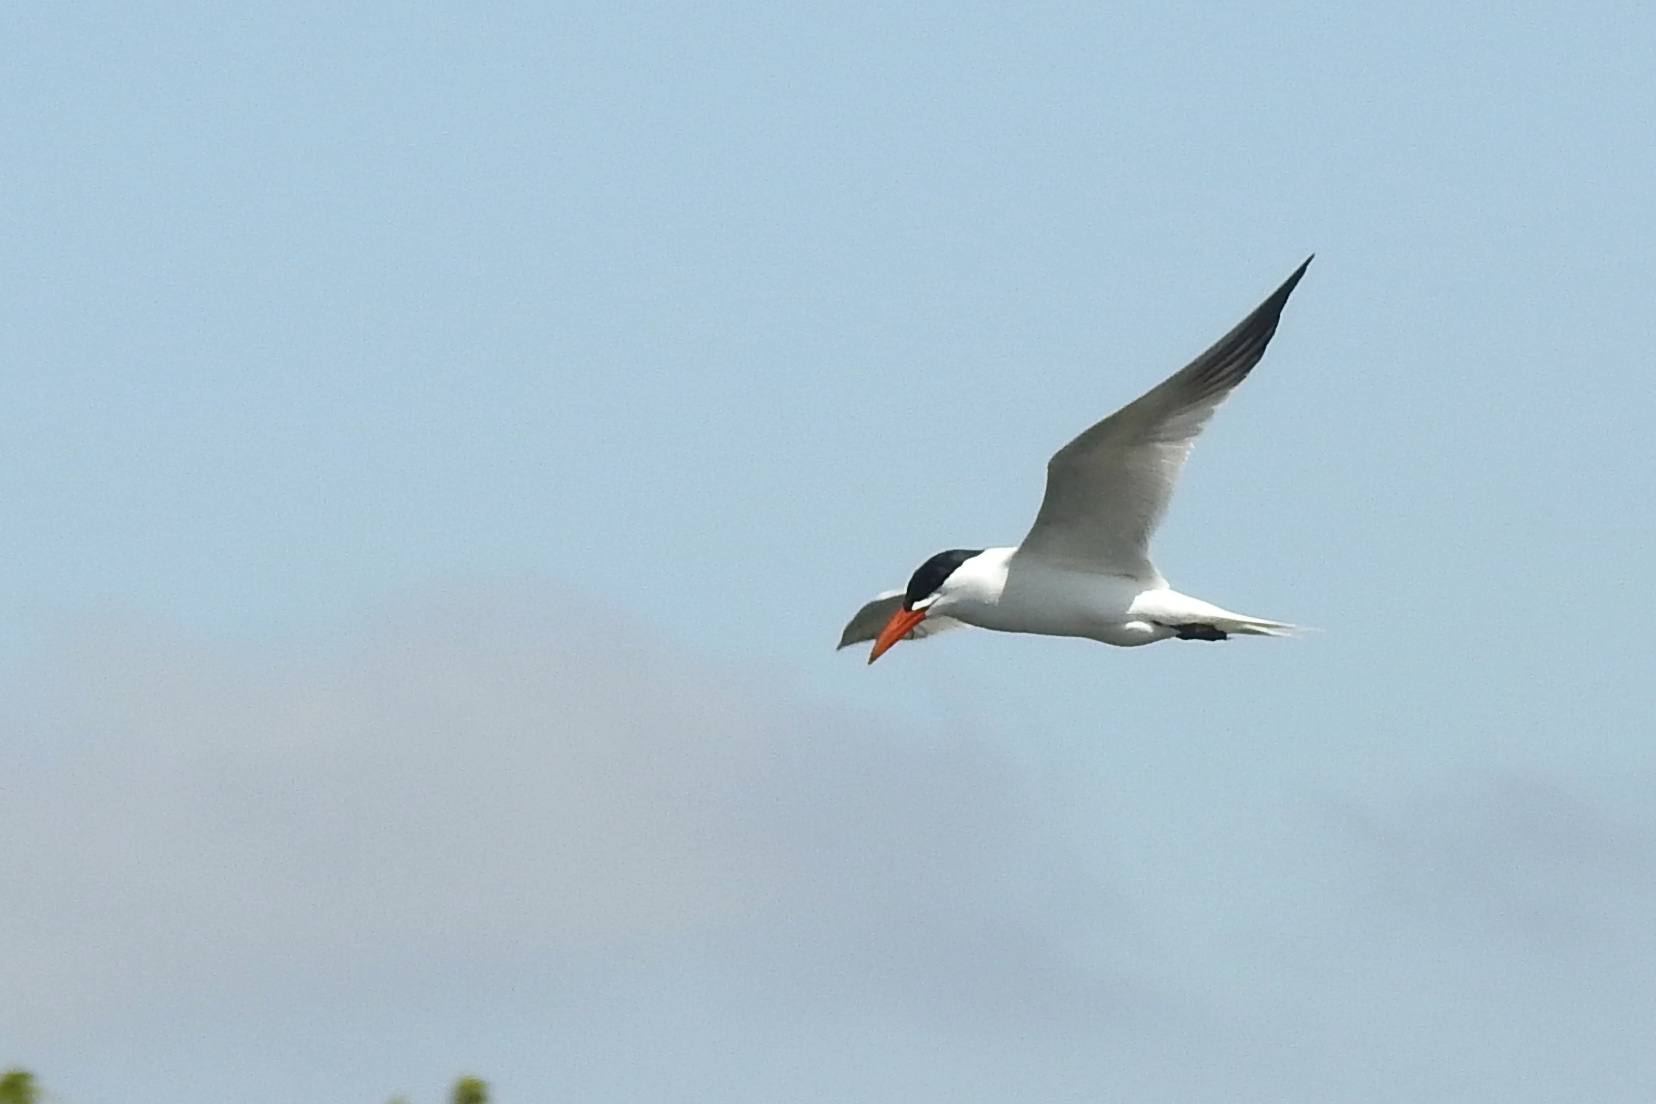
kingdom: Animalia
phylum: Chordata
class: Aves
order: Charadriiformes
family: Laridae
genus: Hydroprogne
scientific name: Hydroprogne caspia
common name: Caspian tern
